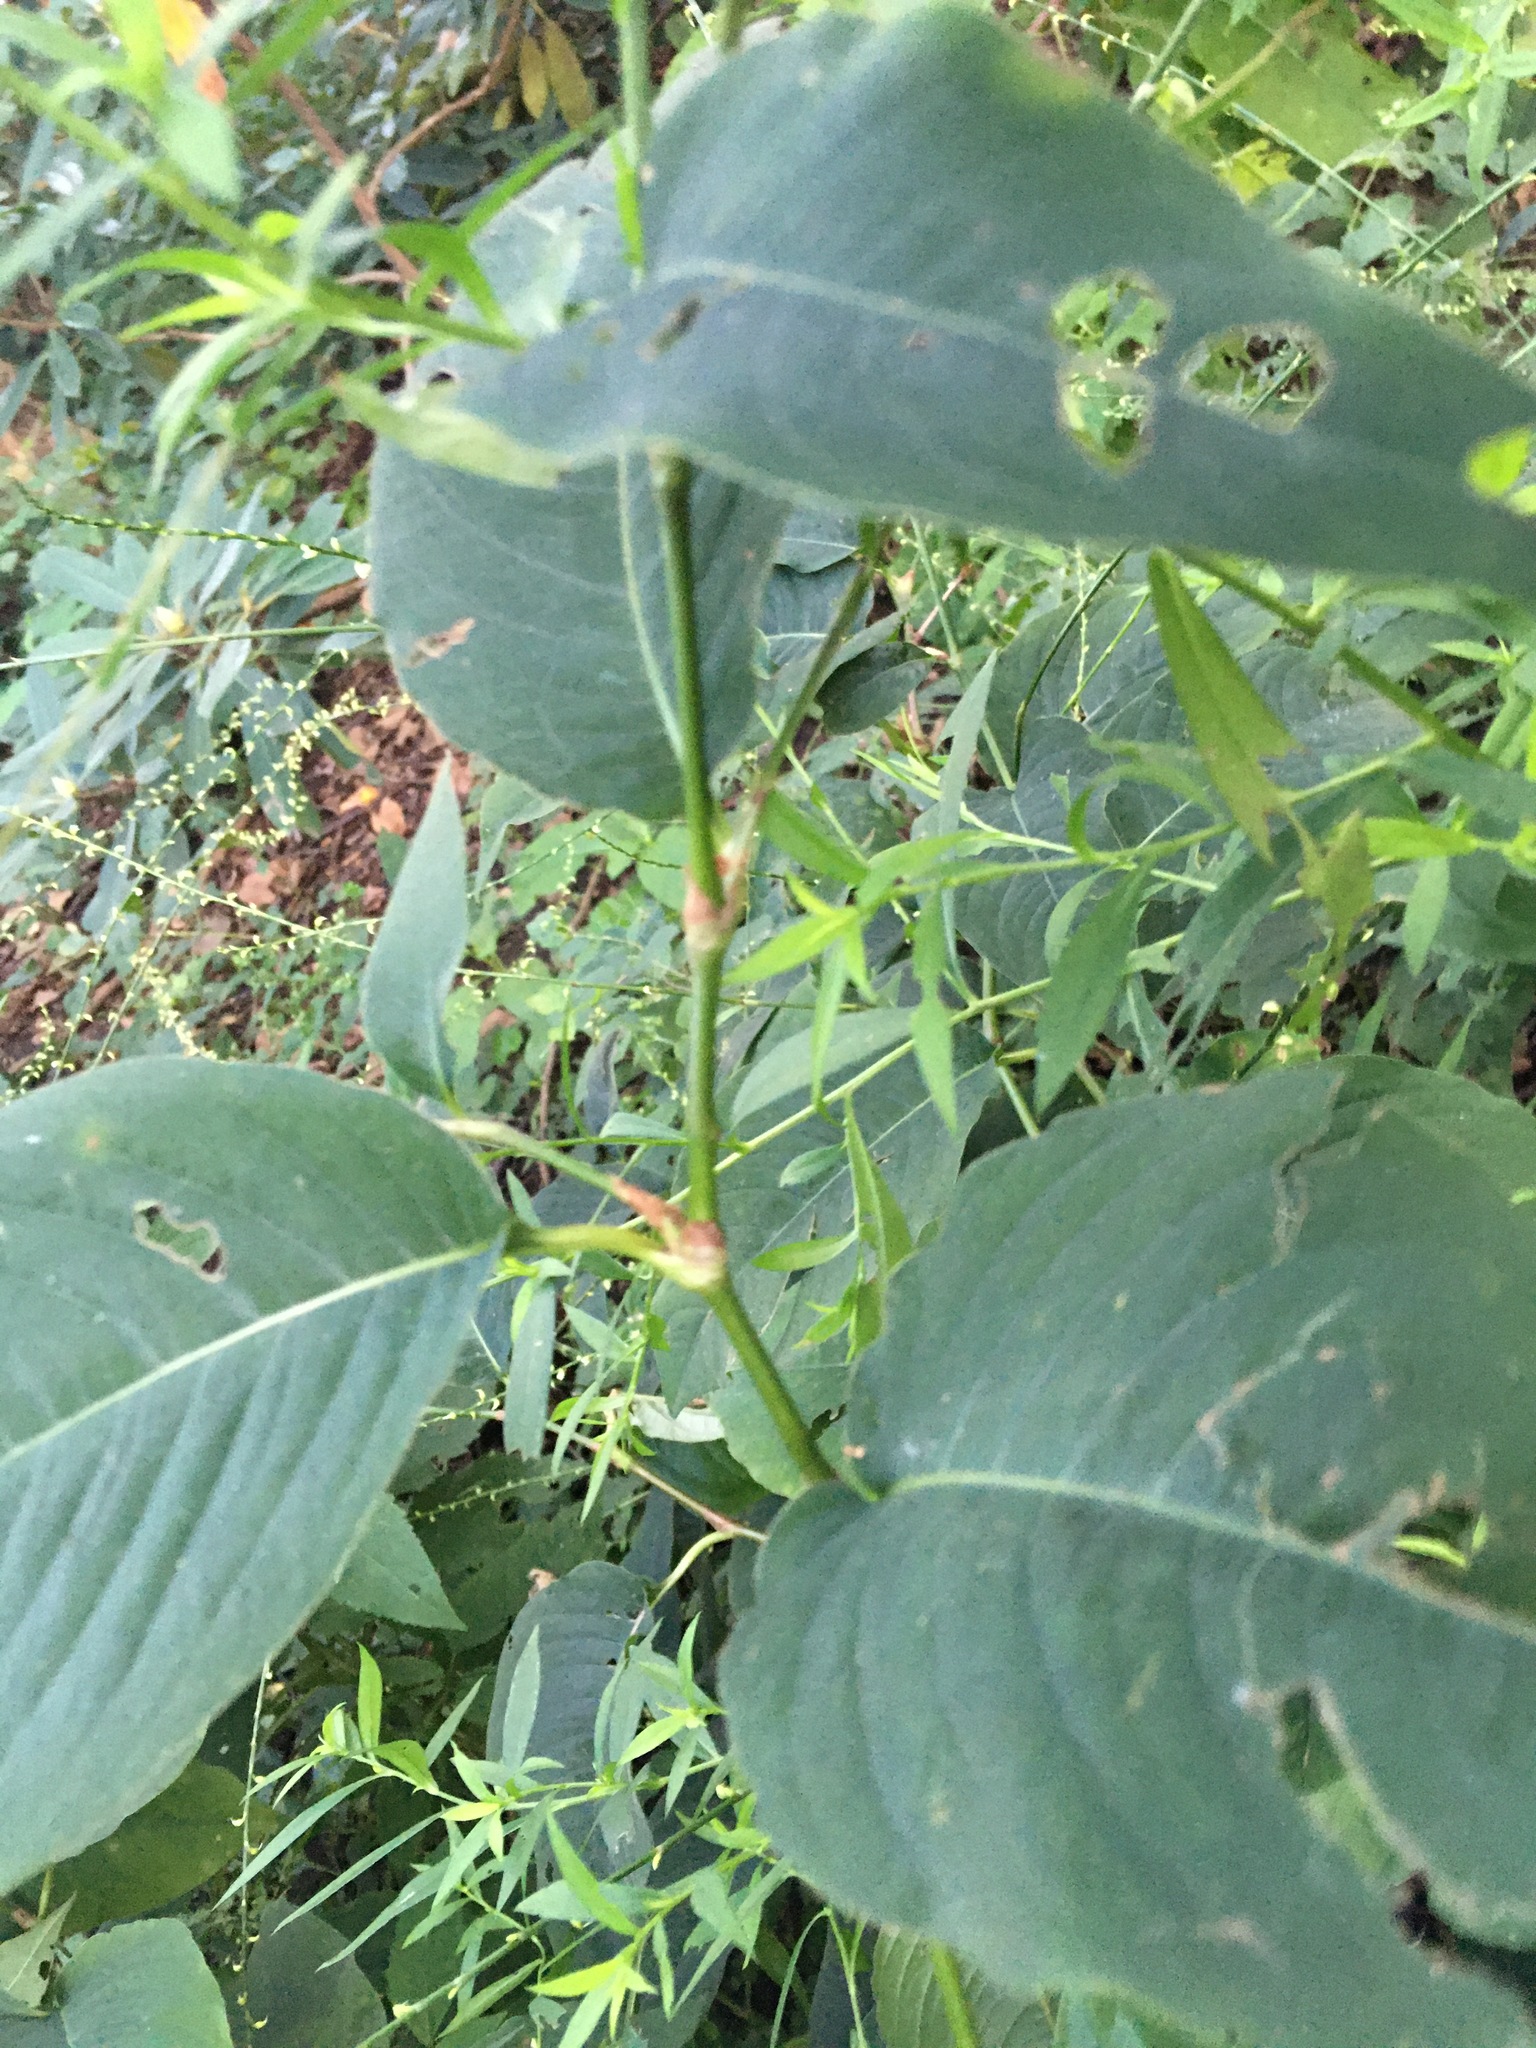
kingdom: Plantae
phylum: Tracheophyta
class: Magnoliopsida
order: Caryophyllales
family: Polygonaceae
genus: Persicaria
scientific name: Persicaria virginiana
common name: Jumpseed
